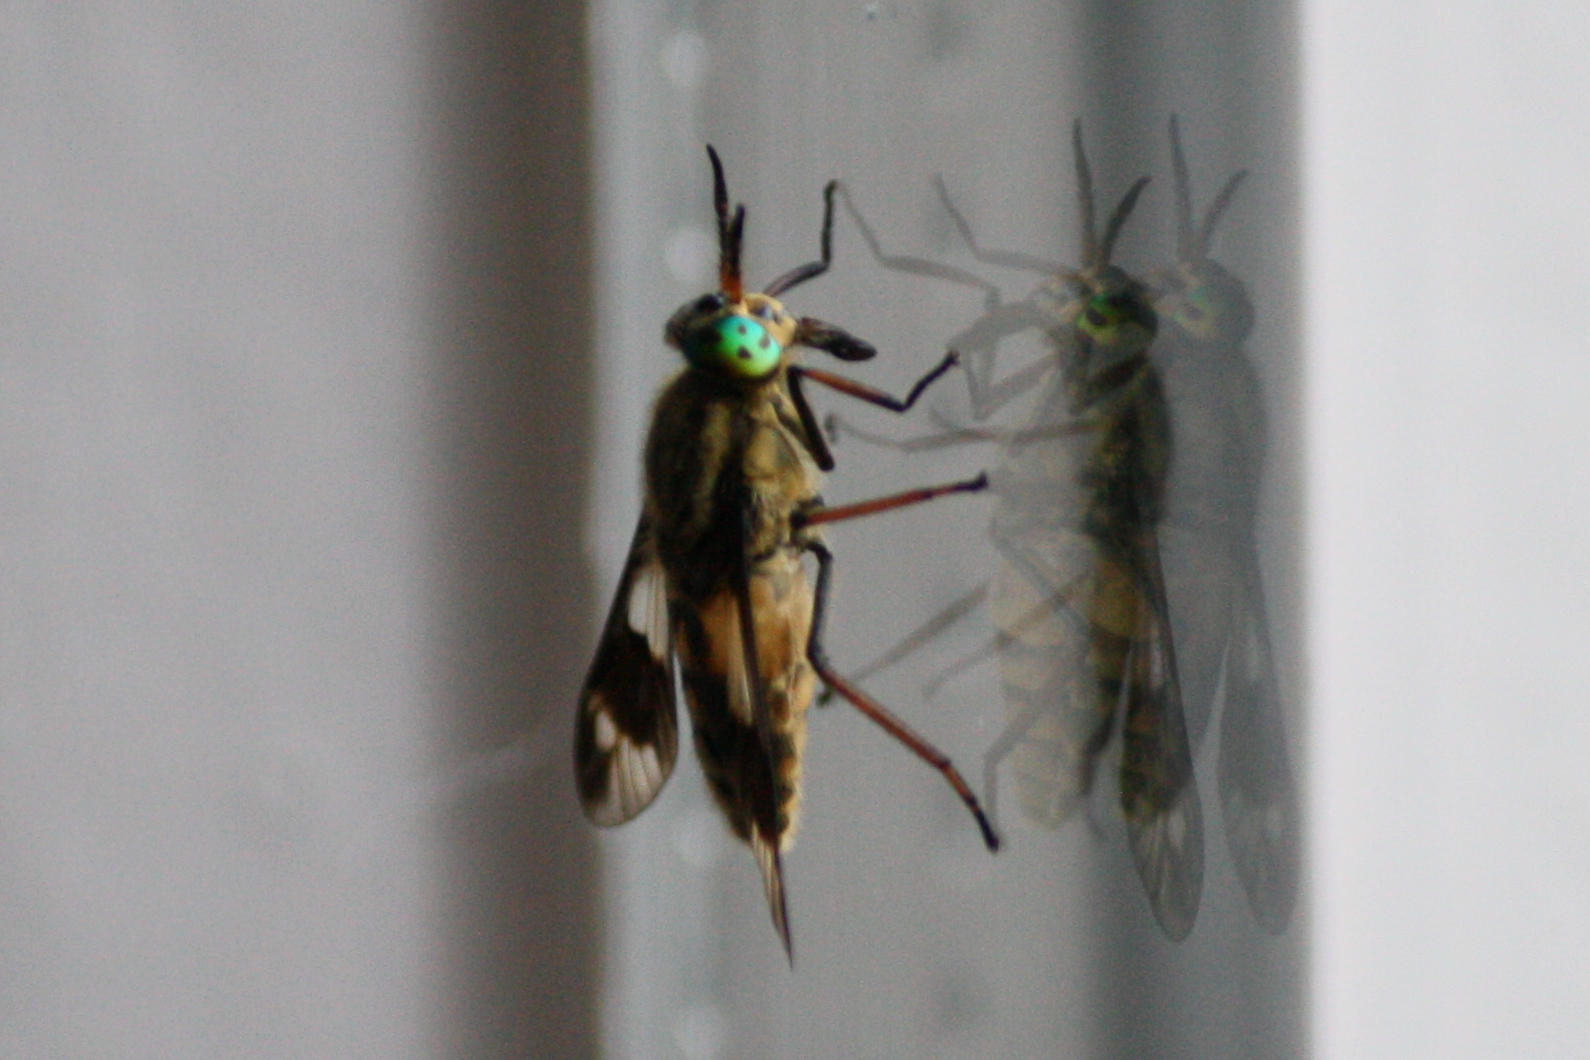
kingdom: Animalia
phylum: Arthropoda
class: Insecta
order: Diptera
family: Tabanidae
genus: Chrysops
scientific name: Chrysops relictus
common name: Twin-lobed deerfly
